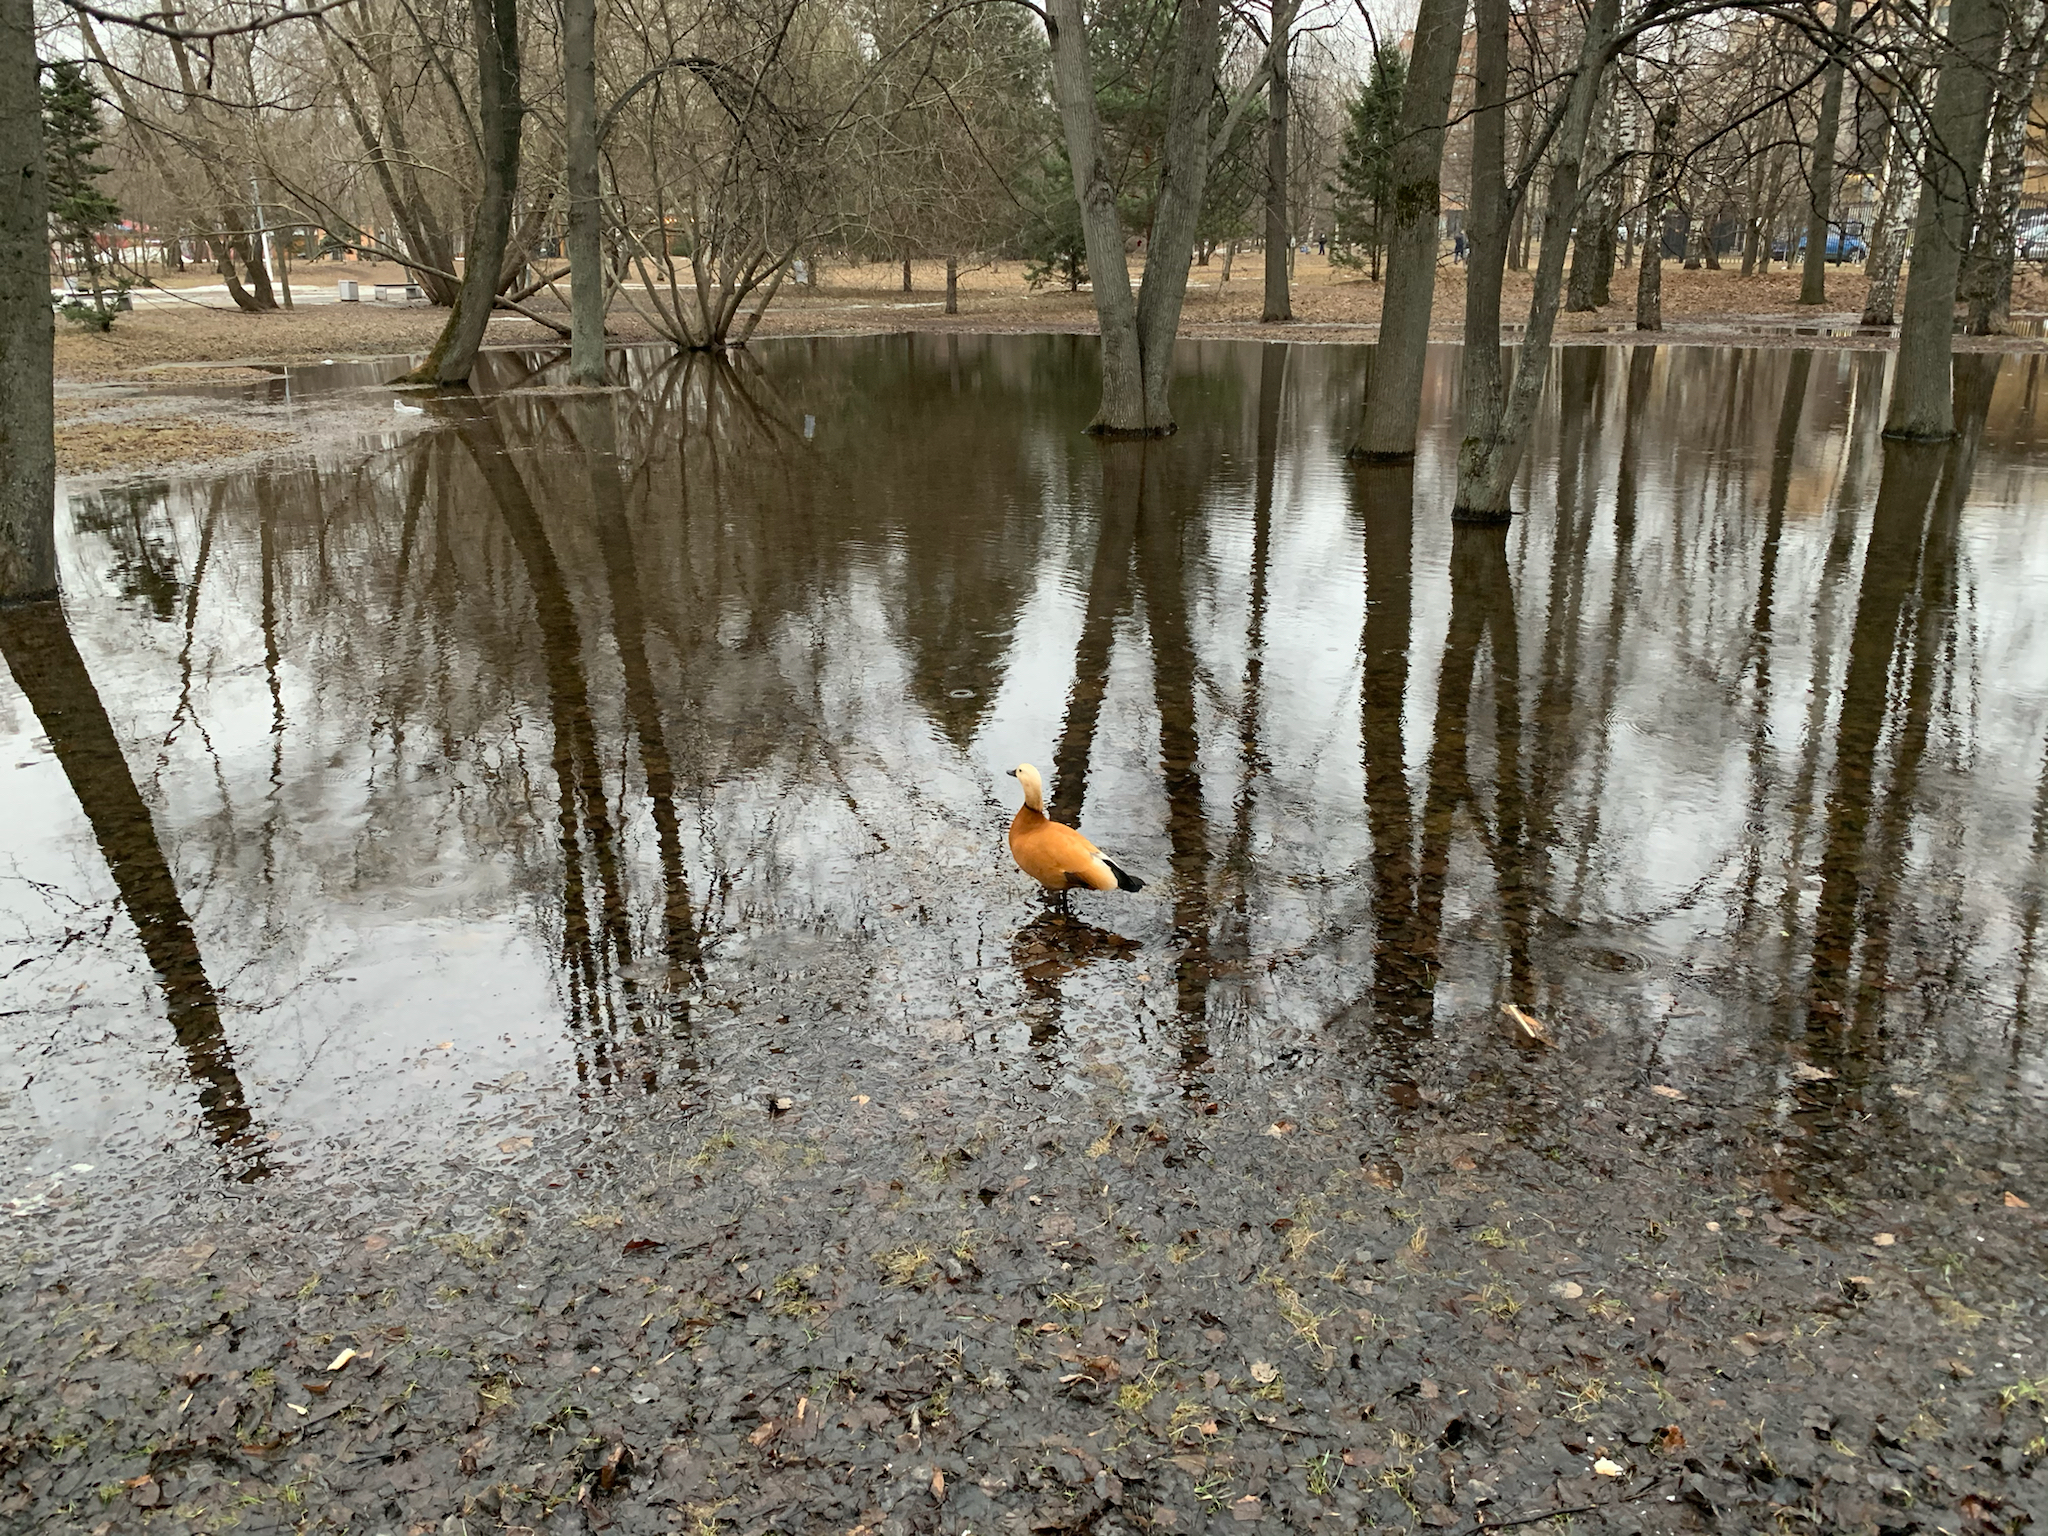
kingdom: Animalia
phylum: Chordata
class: Aves
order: Anseriformes
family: Anatidae
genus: Tadorna
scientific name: Tadorna ferruginea
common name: Ruddy shelduck
